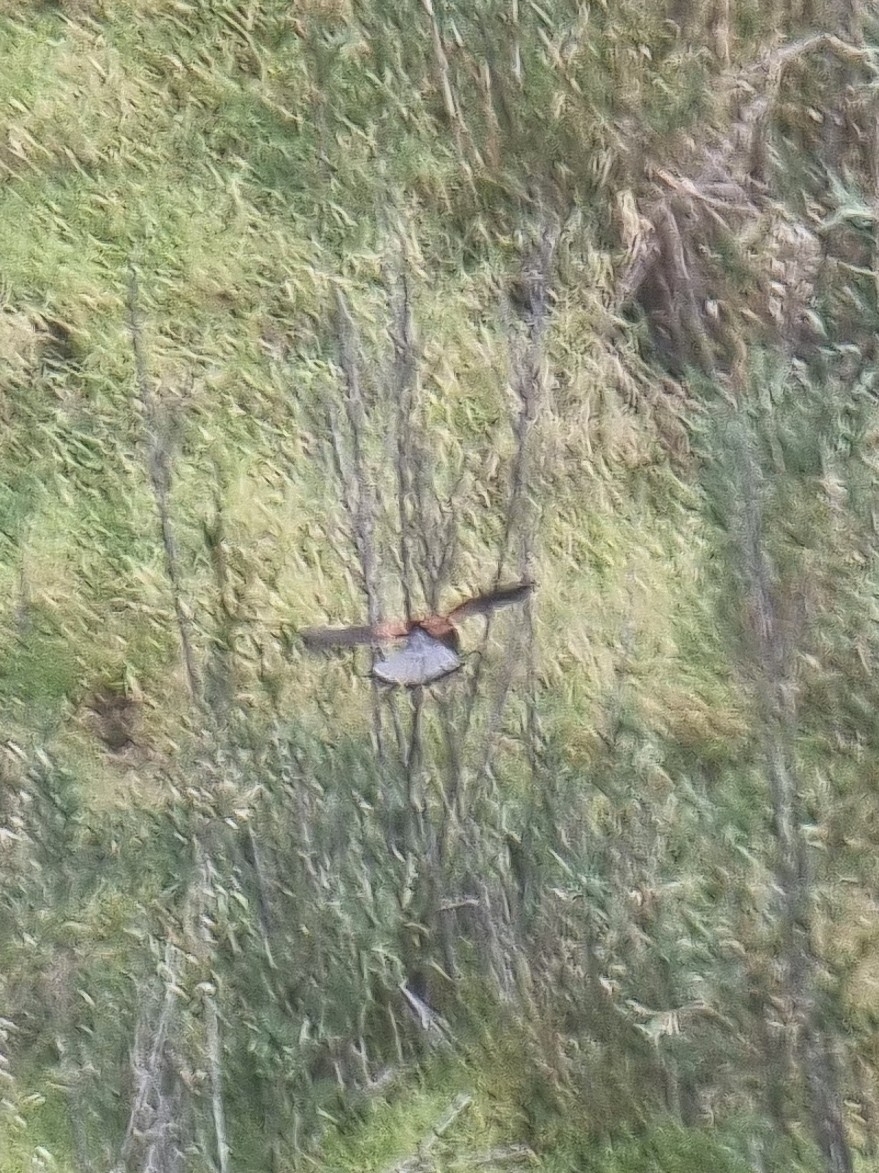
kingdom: Animalia
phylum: Chordata
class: Aves
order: Falconiformes
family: Falconidae
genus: Falco
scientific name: Falco tinnunculus
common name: Common kestrel
